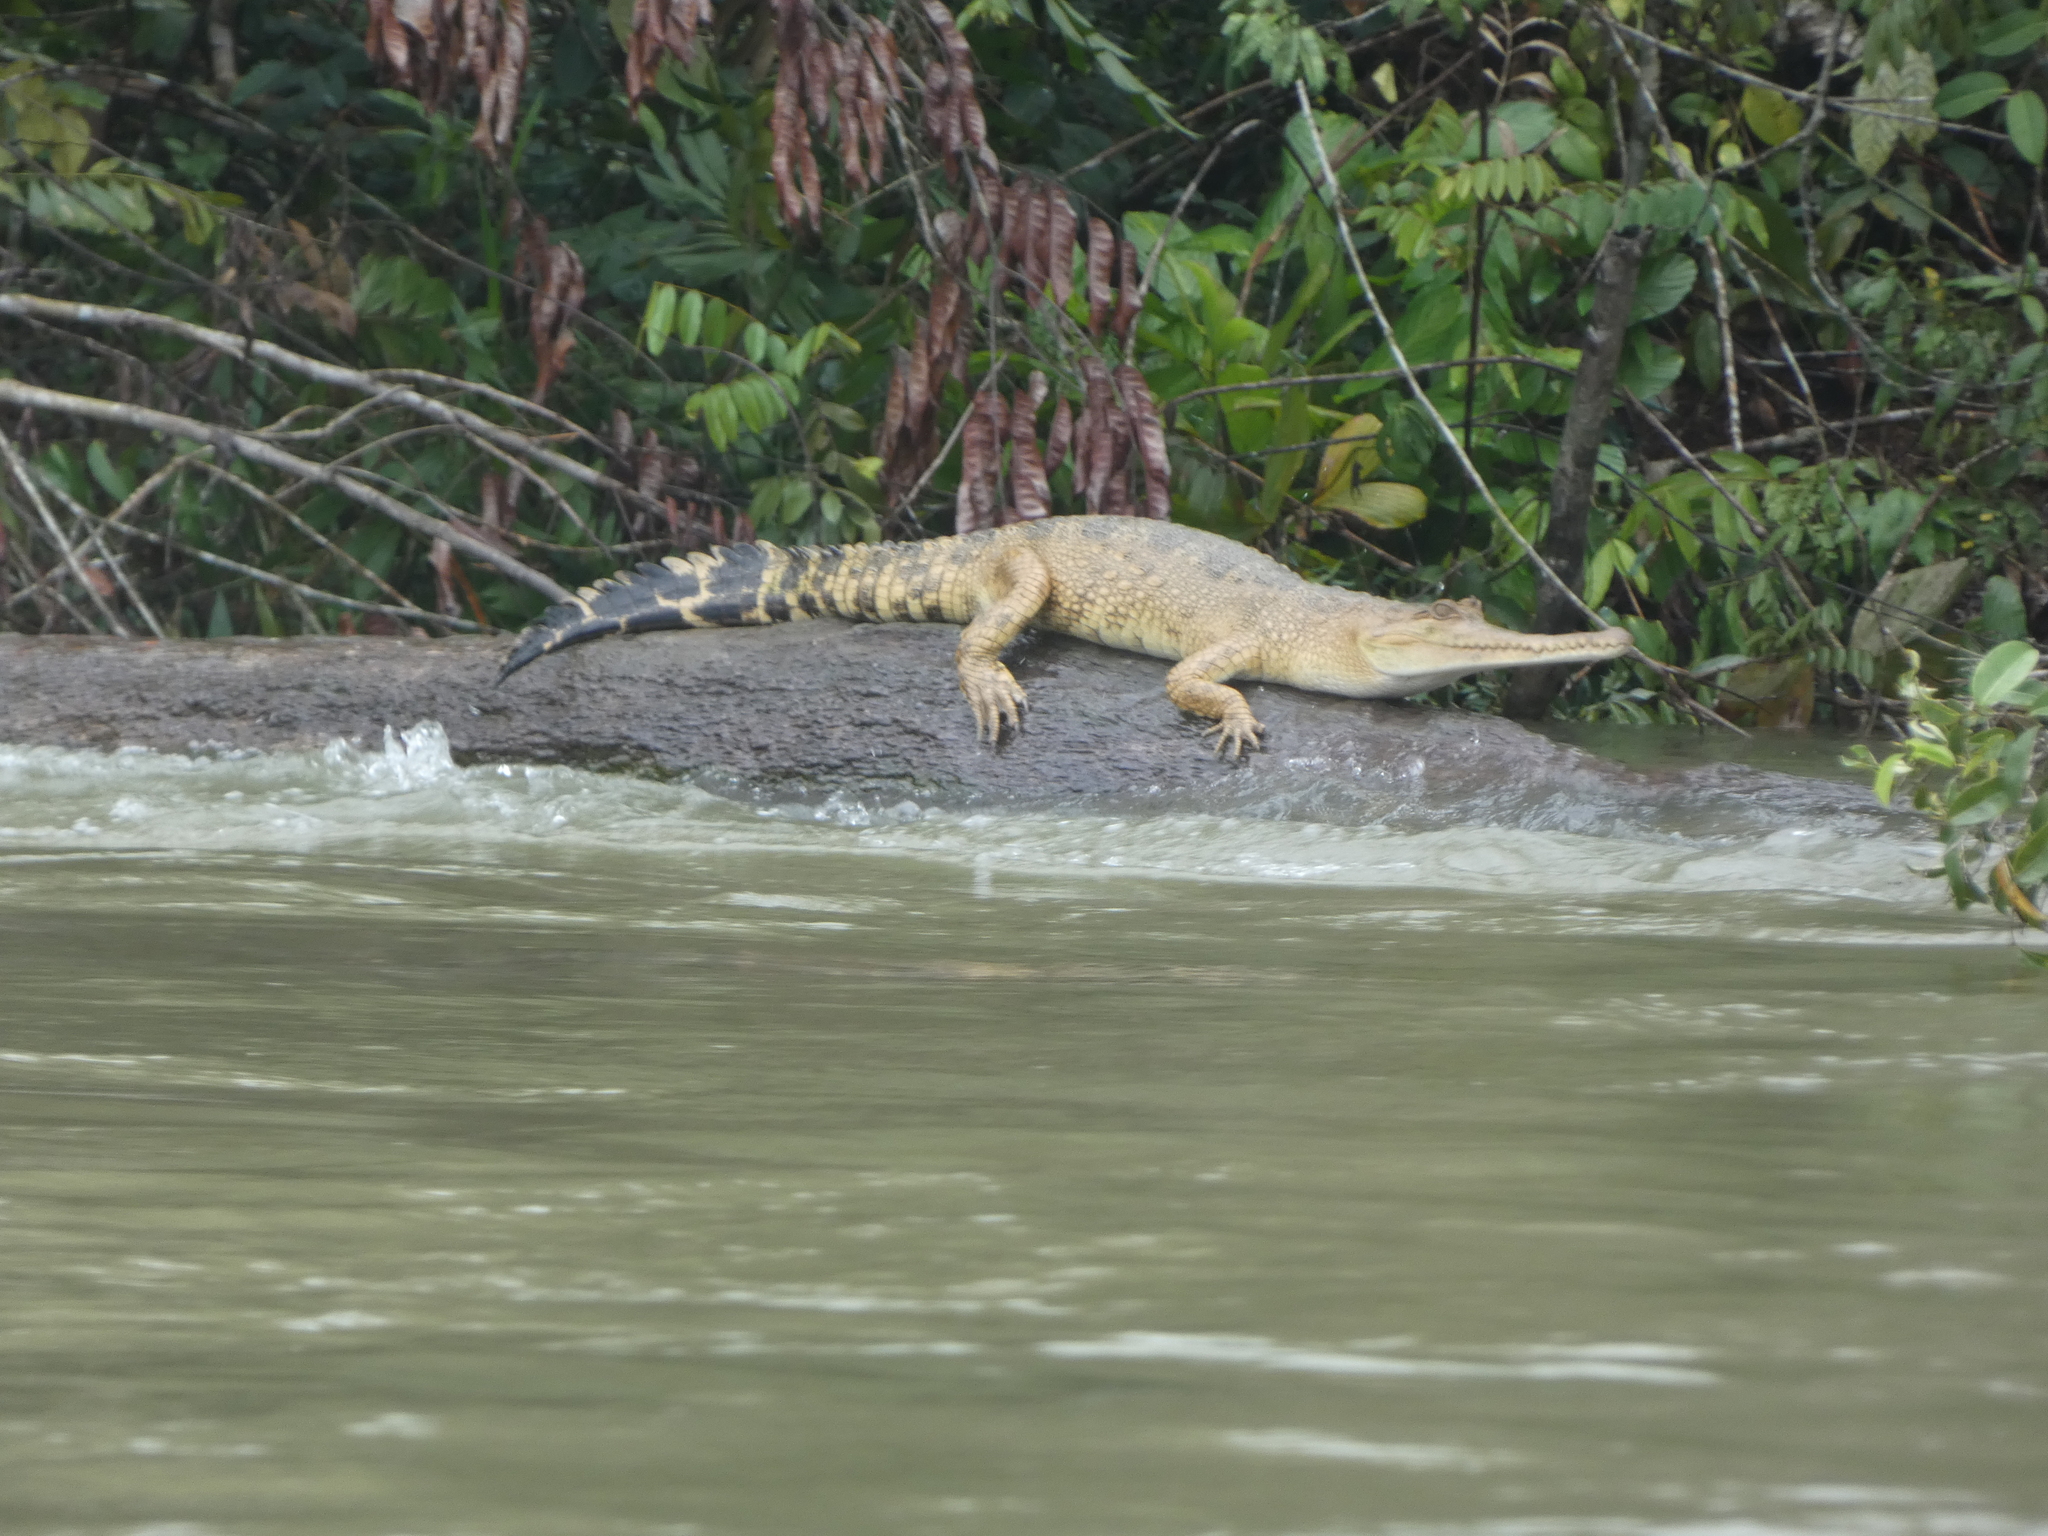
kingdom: Animalia
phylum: Chordata
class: Crocodylia
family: Crocodylidae
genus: Mecistops
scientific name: Mecistops leptorhynchus
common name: Central african slender-snouted crocodile
